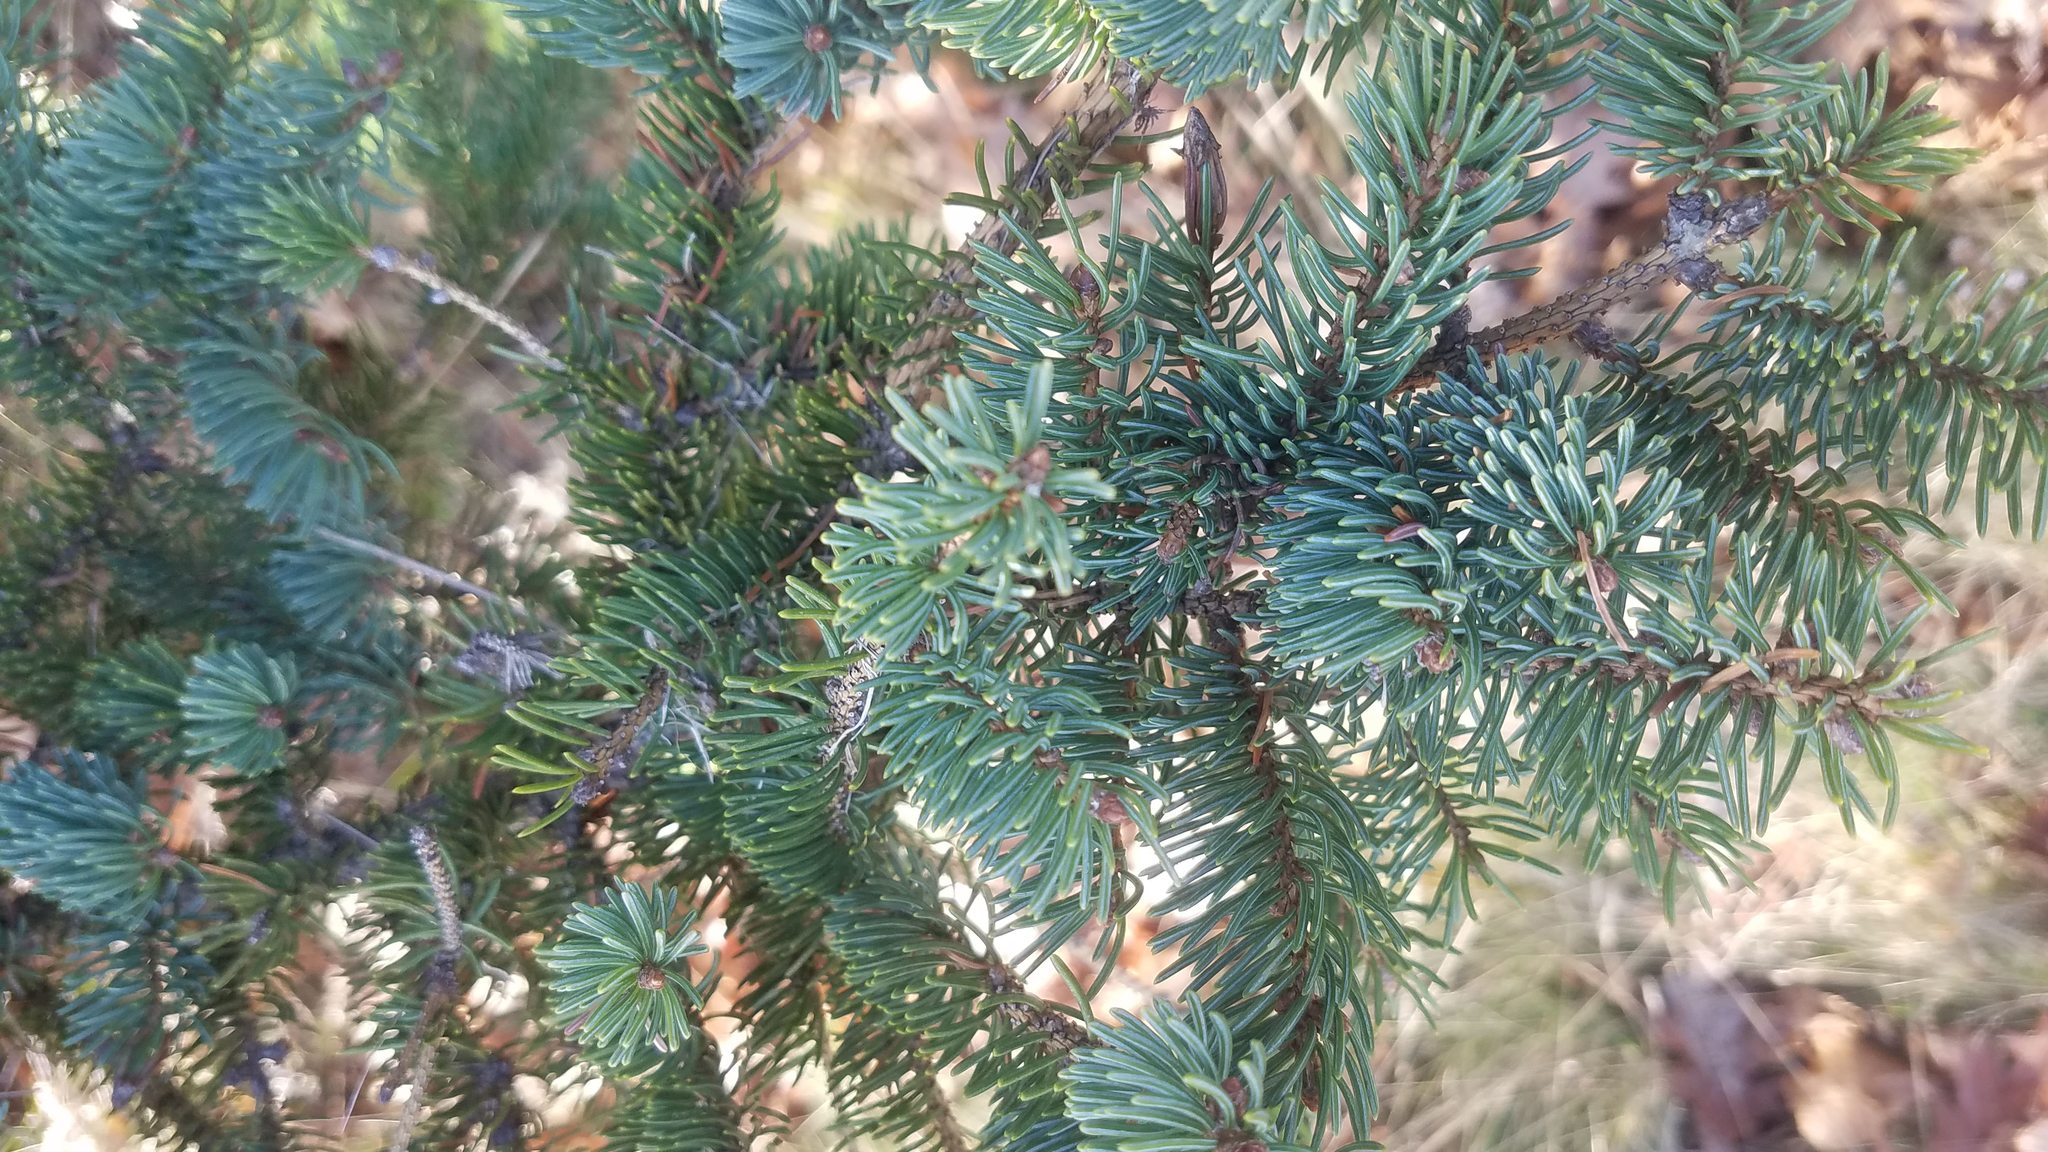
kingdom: Plantae
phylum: Tracheophyta
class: Pinopsida
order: Pinales
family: Pinaceae
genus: Picea
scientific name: Picea glauca
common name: White spruce
